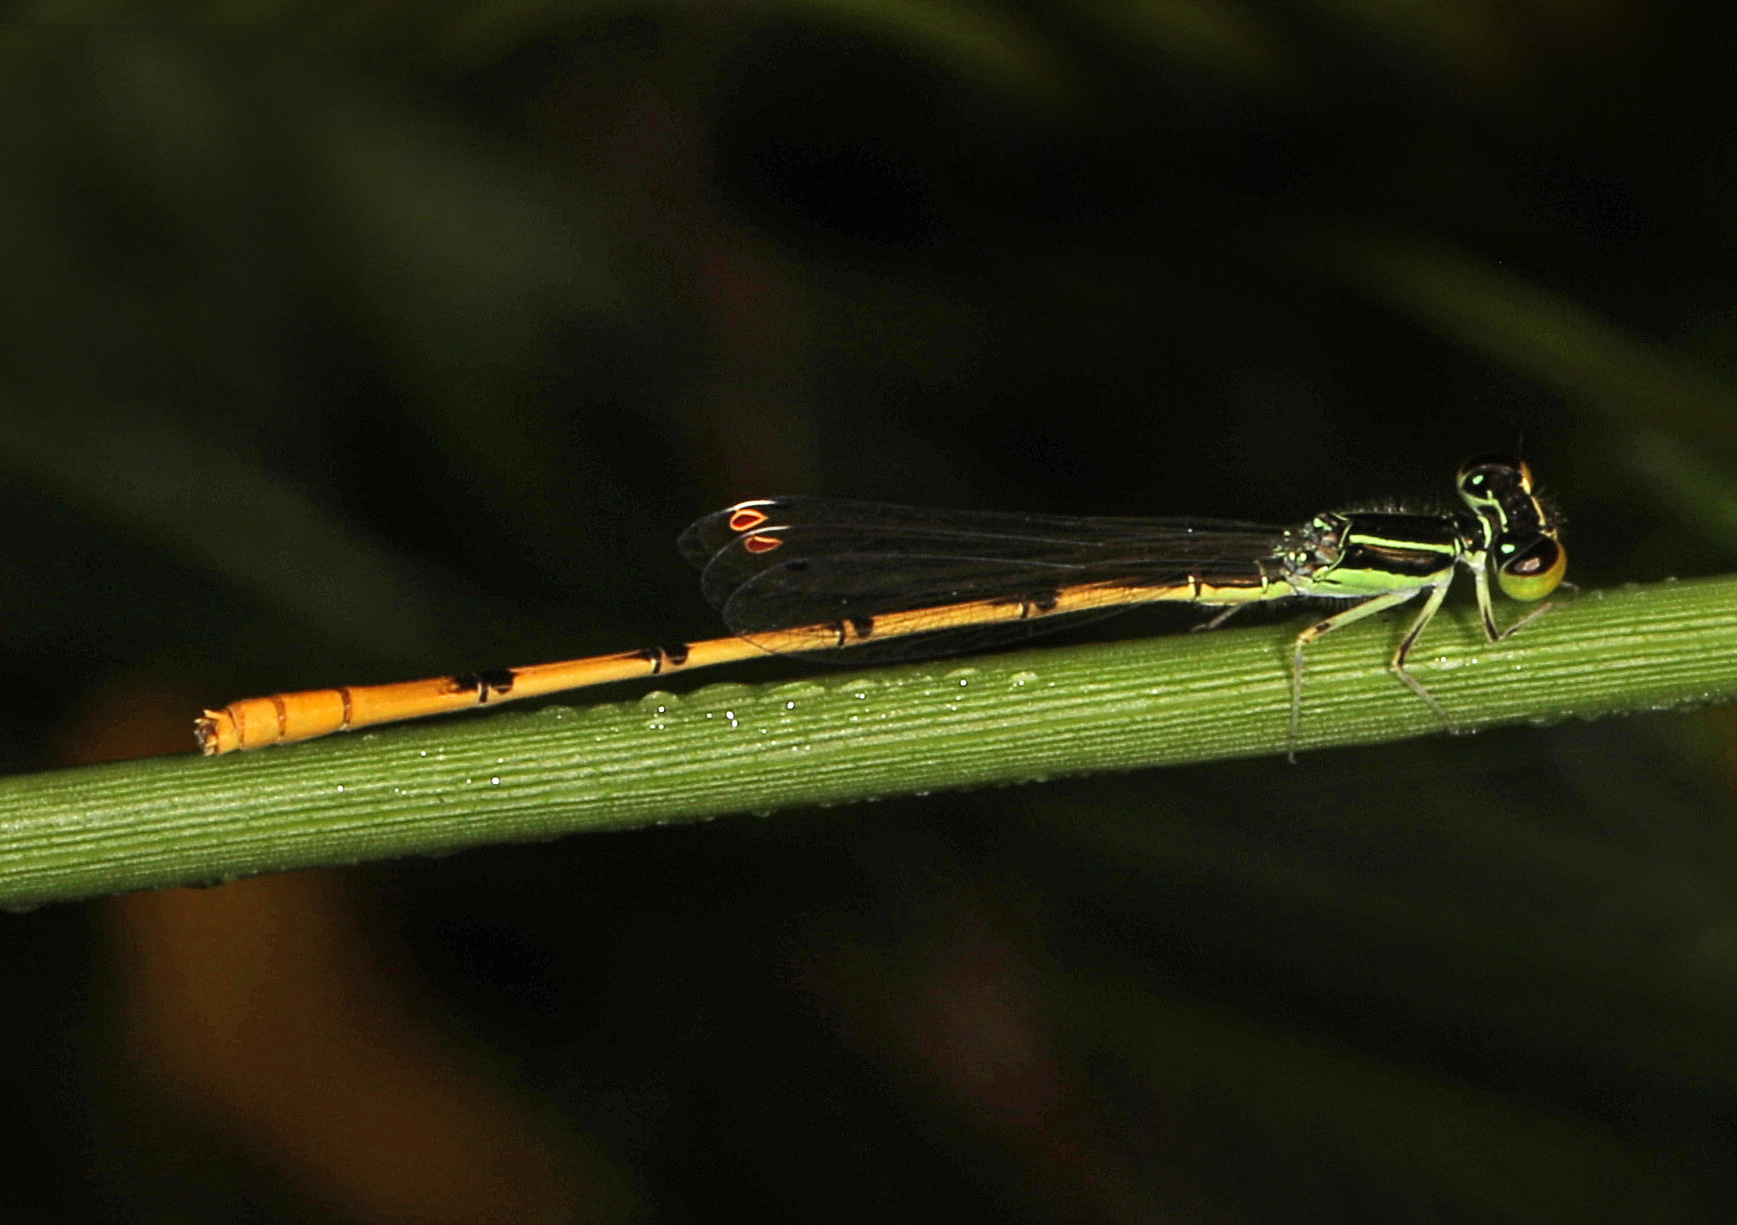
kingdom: Animalia
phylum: Arthropoda
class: Insecta
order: Odonata
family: Coenagrionidae
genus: Ischnura
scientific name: Ischnura hastata
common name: Citrine forktail
